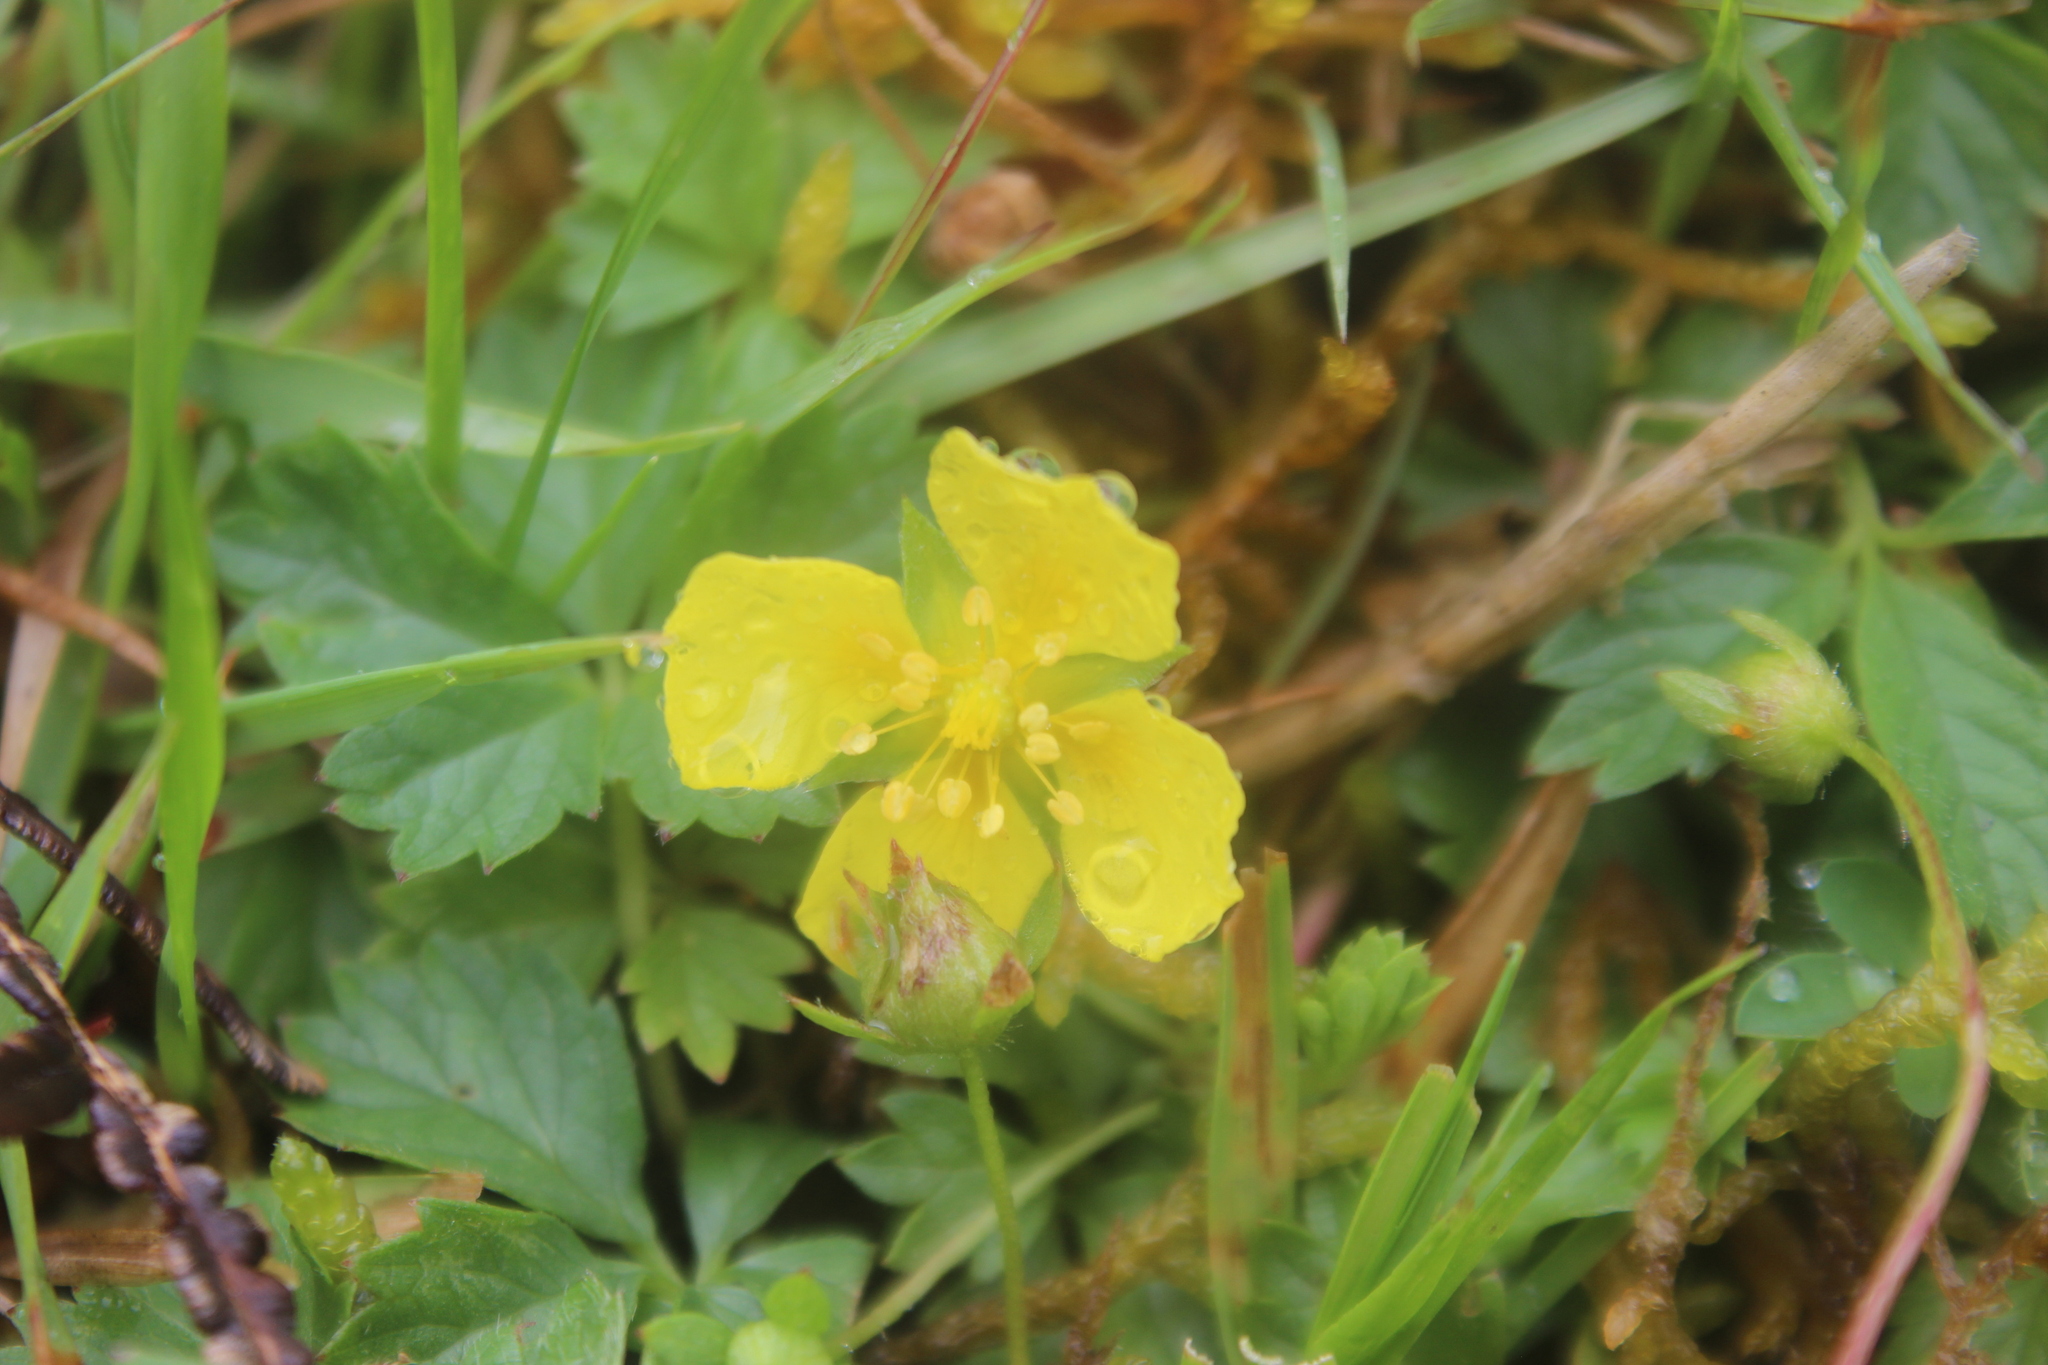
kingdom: Plantae
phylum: Tracheophyta
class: Magnoliopsida
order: Rosales
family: Rosaceae
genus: Potentilla
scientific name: Potentilla anglica
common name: Trailing tormentil
